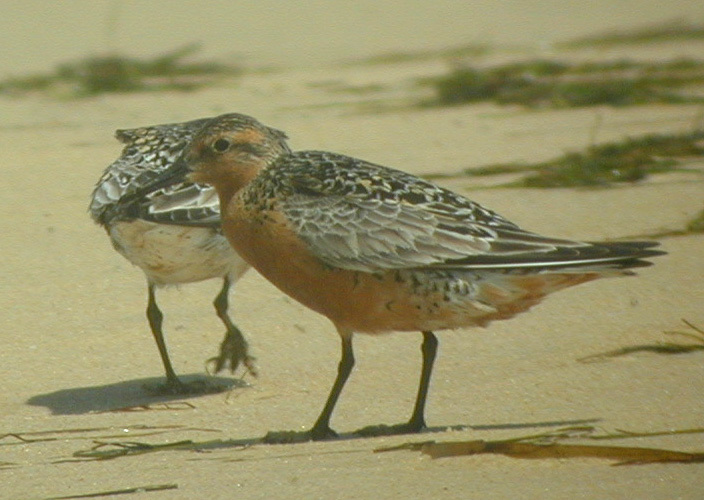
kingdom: Animalia
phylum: Chordata
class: Aves
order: Charadriiformes
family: Scolopacidae
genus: Calidris
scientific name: Calidris canutus
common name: Red knot
